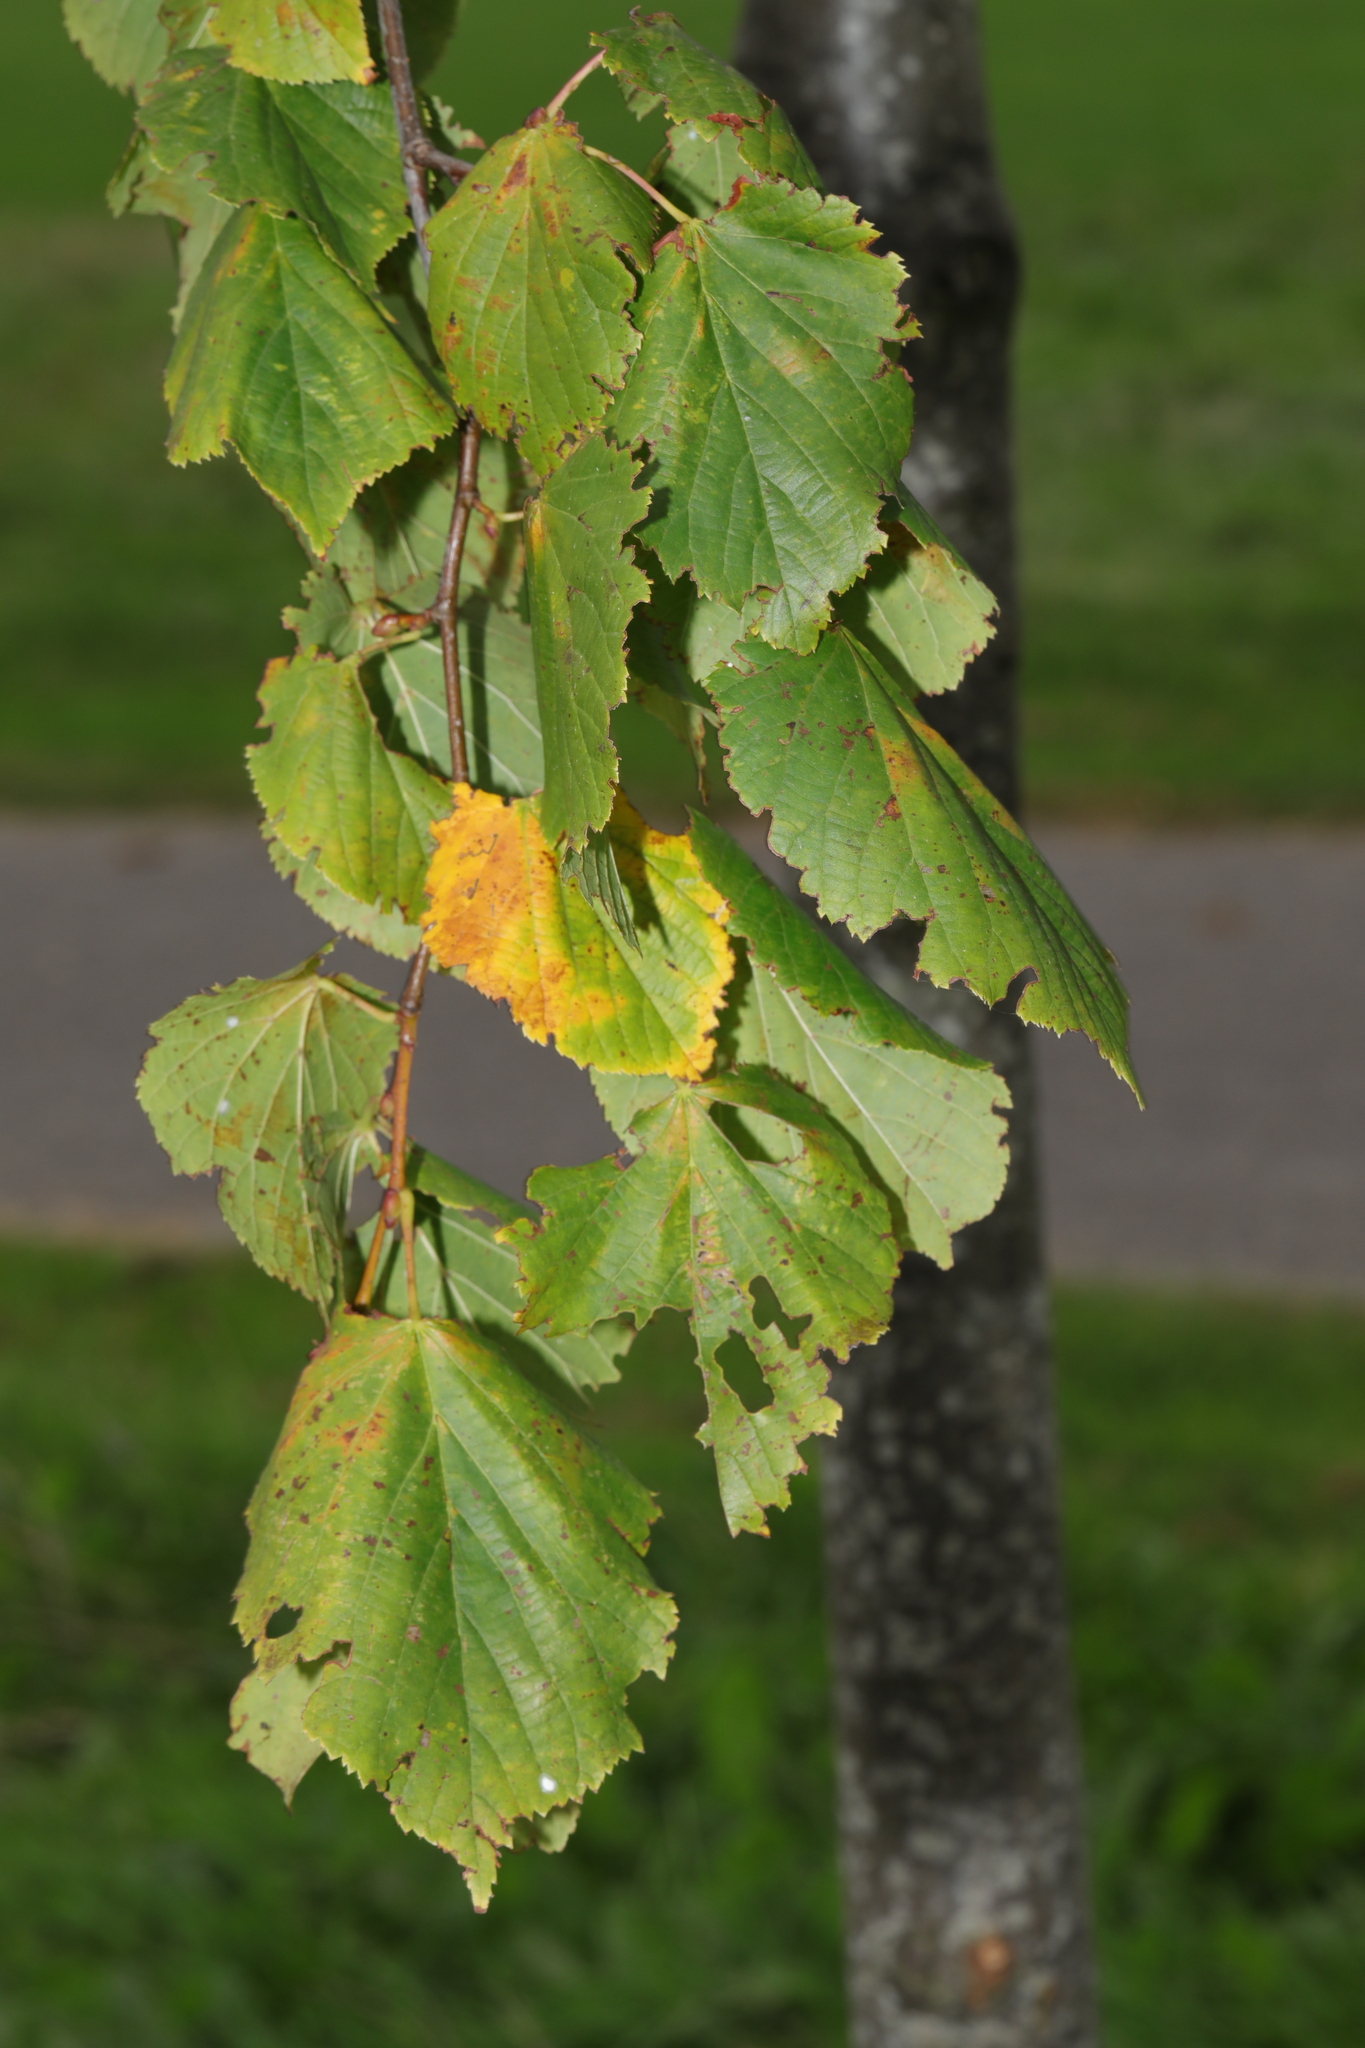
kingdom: Plantae
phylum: Tracheophyta
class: Magnoliopsida
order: Fagales
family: Betulaceae
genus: Betula
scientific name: Betula pendula
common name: Silver birch
